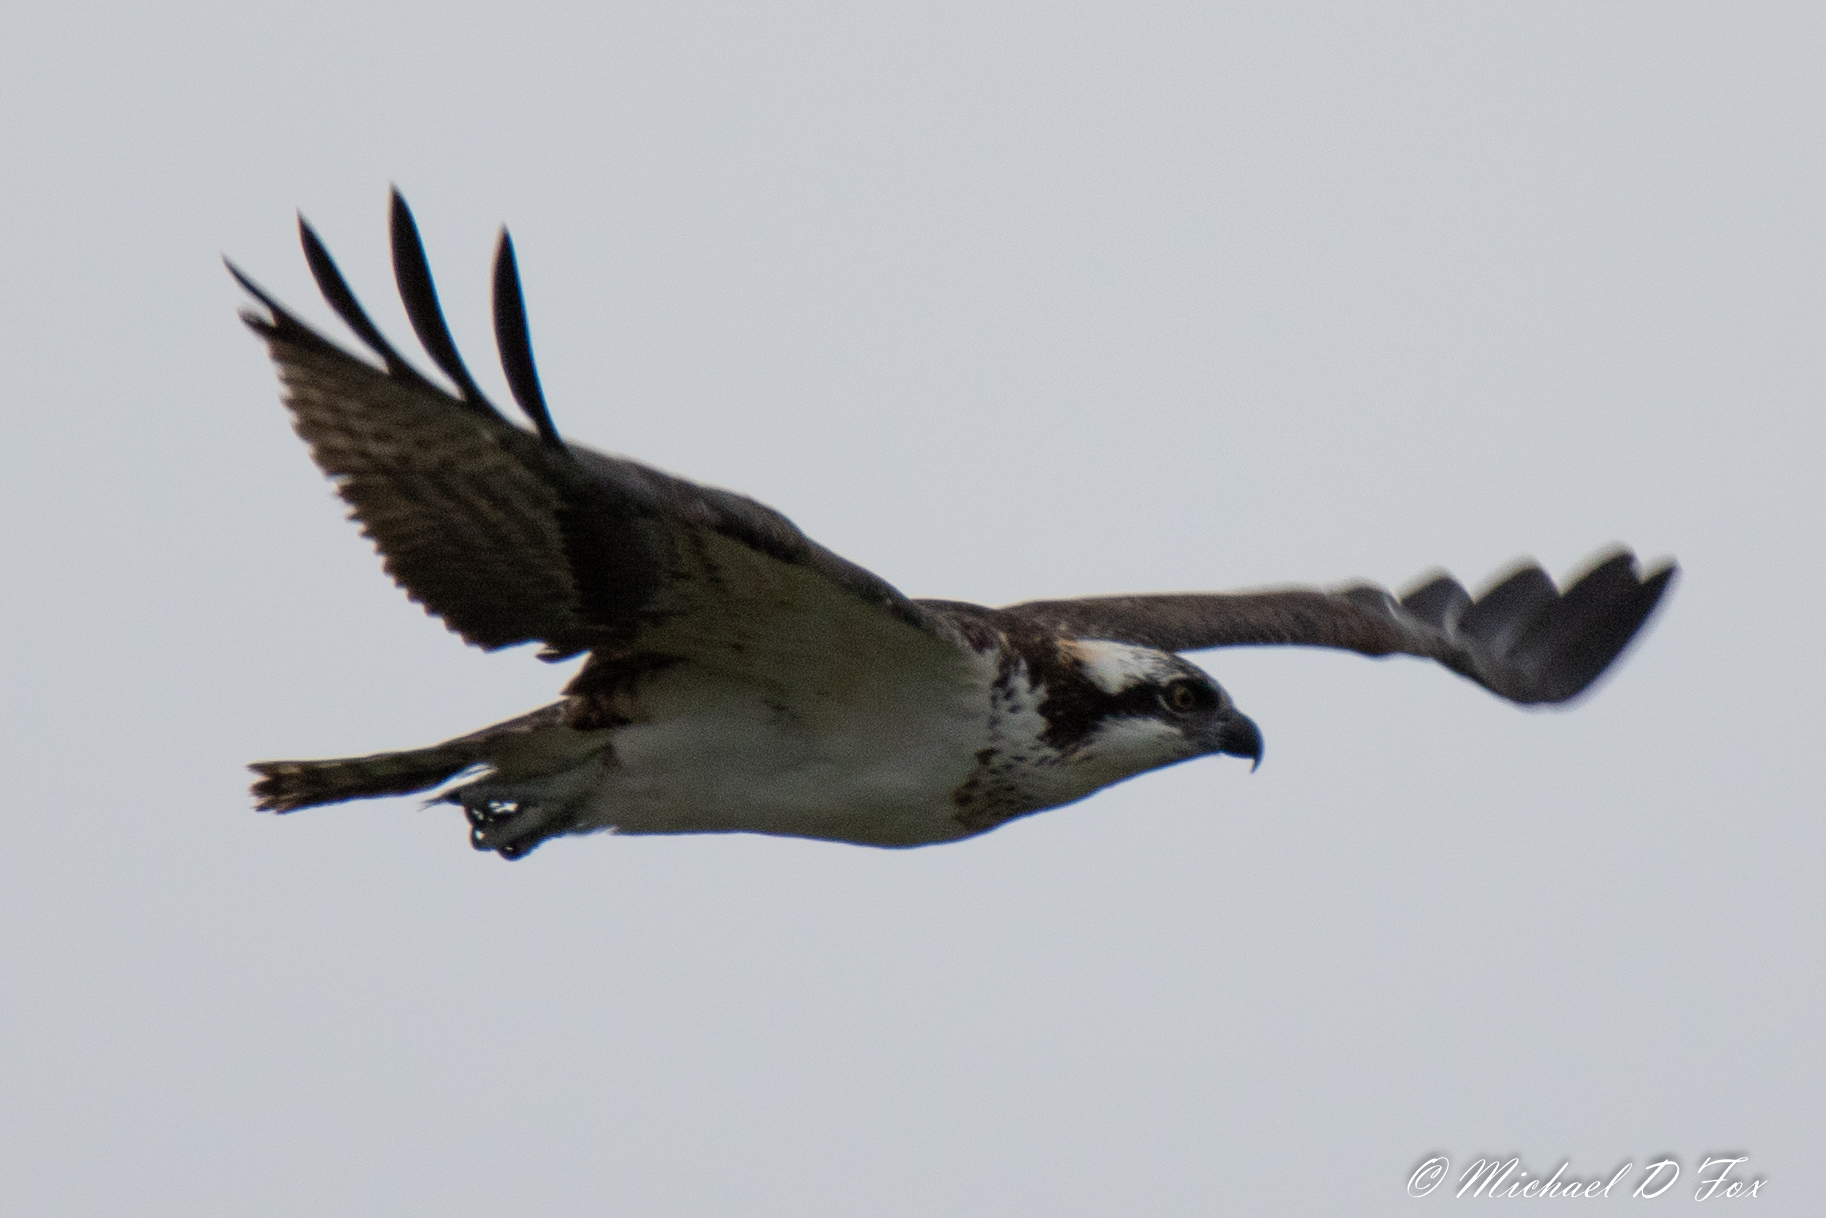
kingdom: Animalia
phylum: Chordata
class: Aves
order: Accipitriformes
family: Pandionidae
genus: Pandion
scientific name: Pandion haliaetus
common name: Osprey
